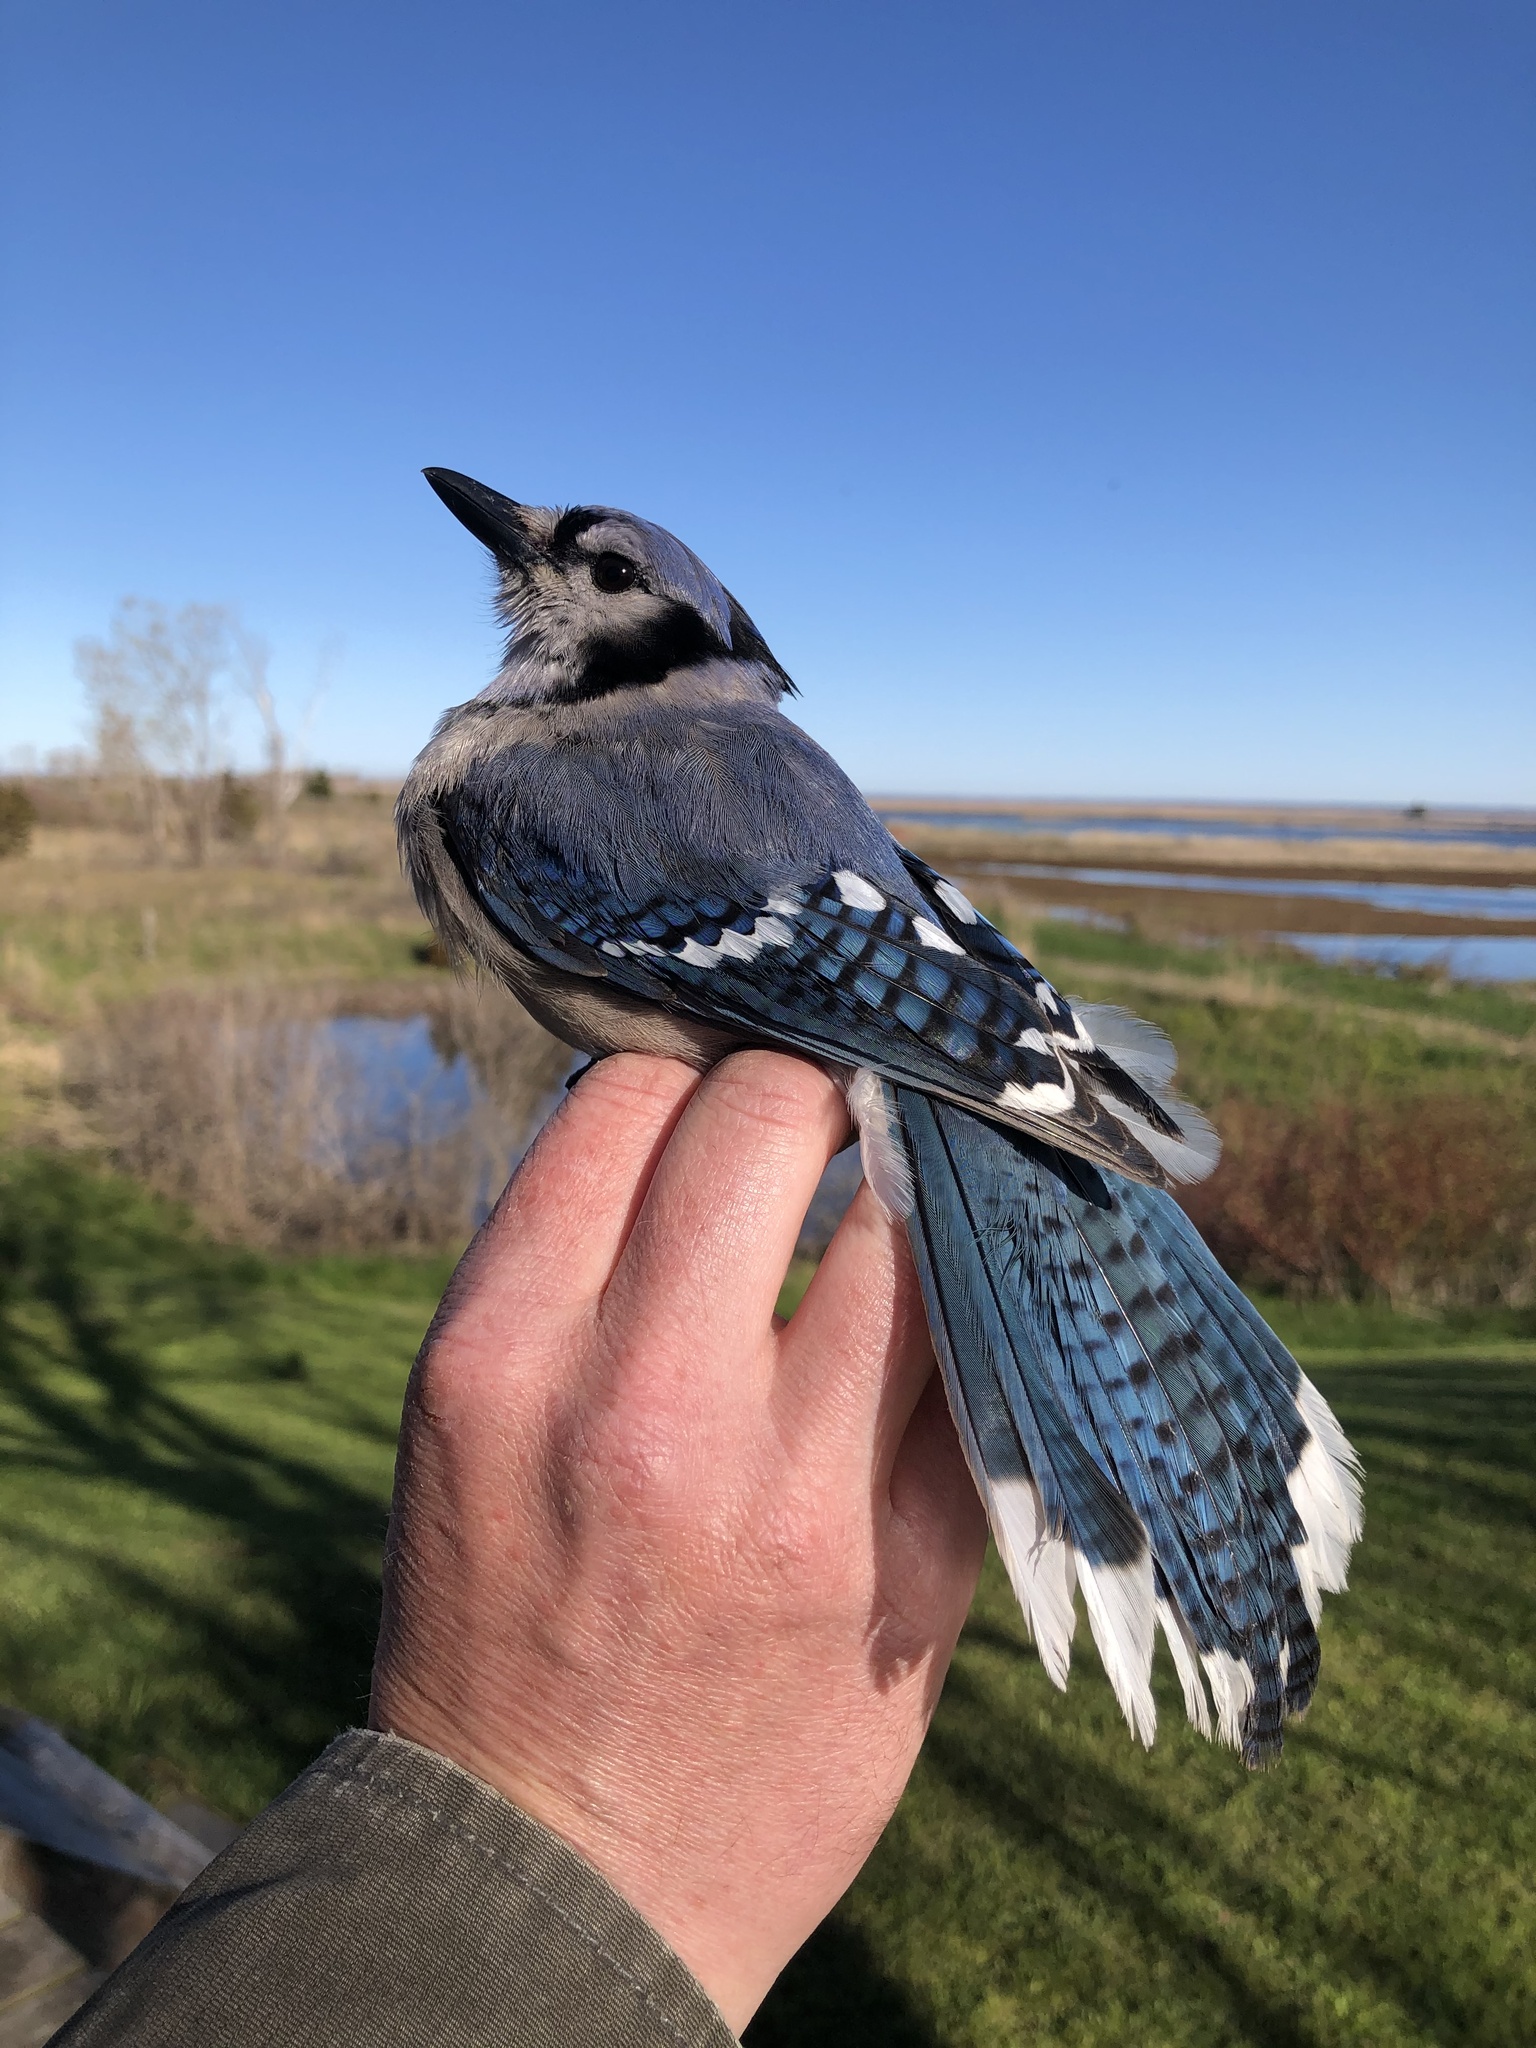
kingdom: Animalia
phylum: Chordata
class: Aves
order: Passeriformes
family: Corvidae
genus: Cyanocitta
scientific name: Cyanocitta cristata
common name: Blue jay
